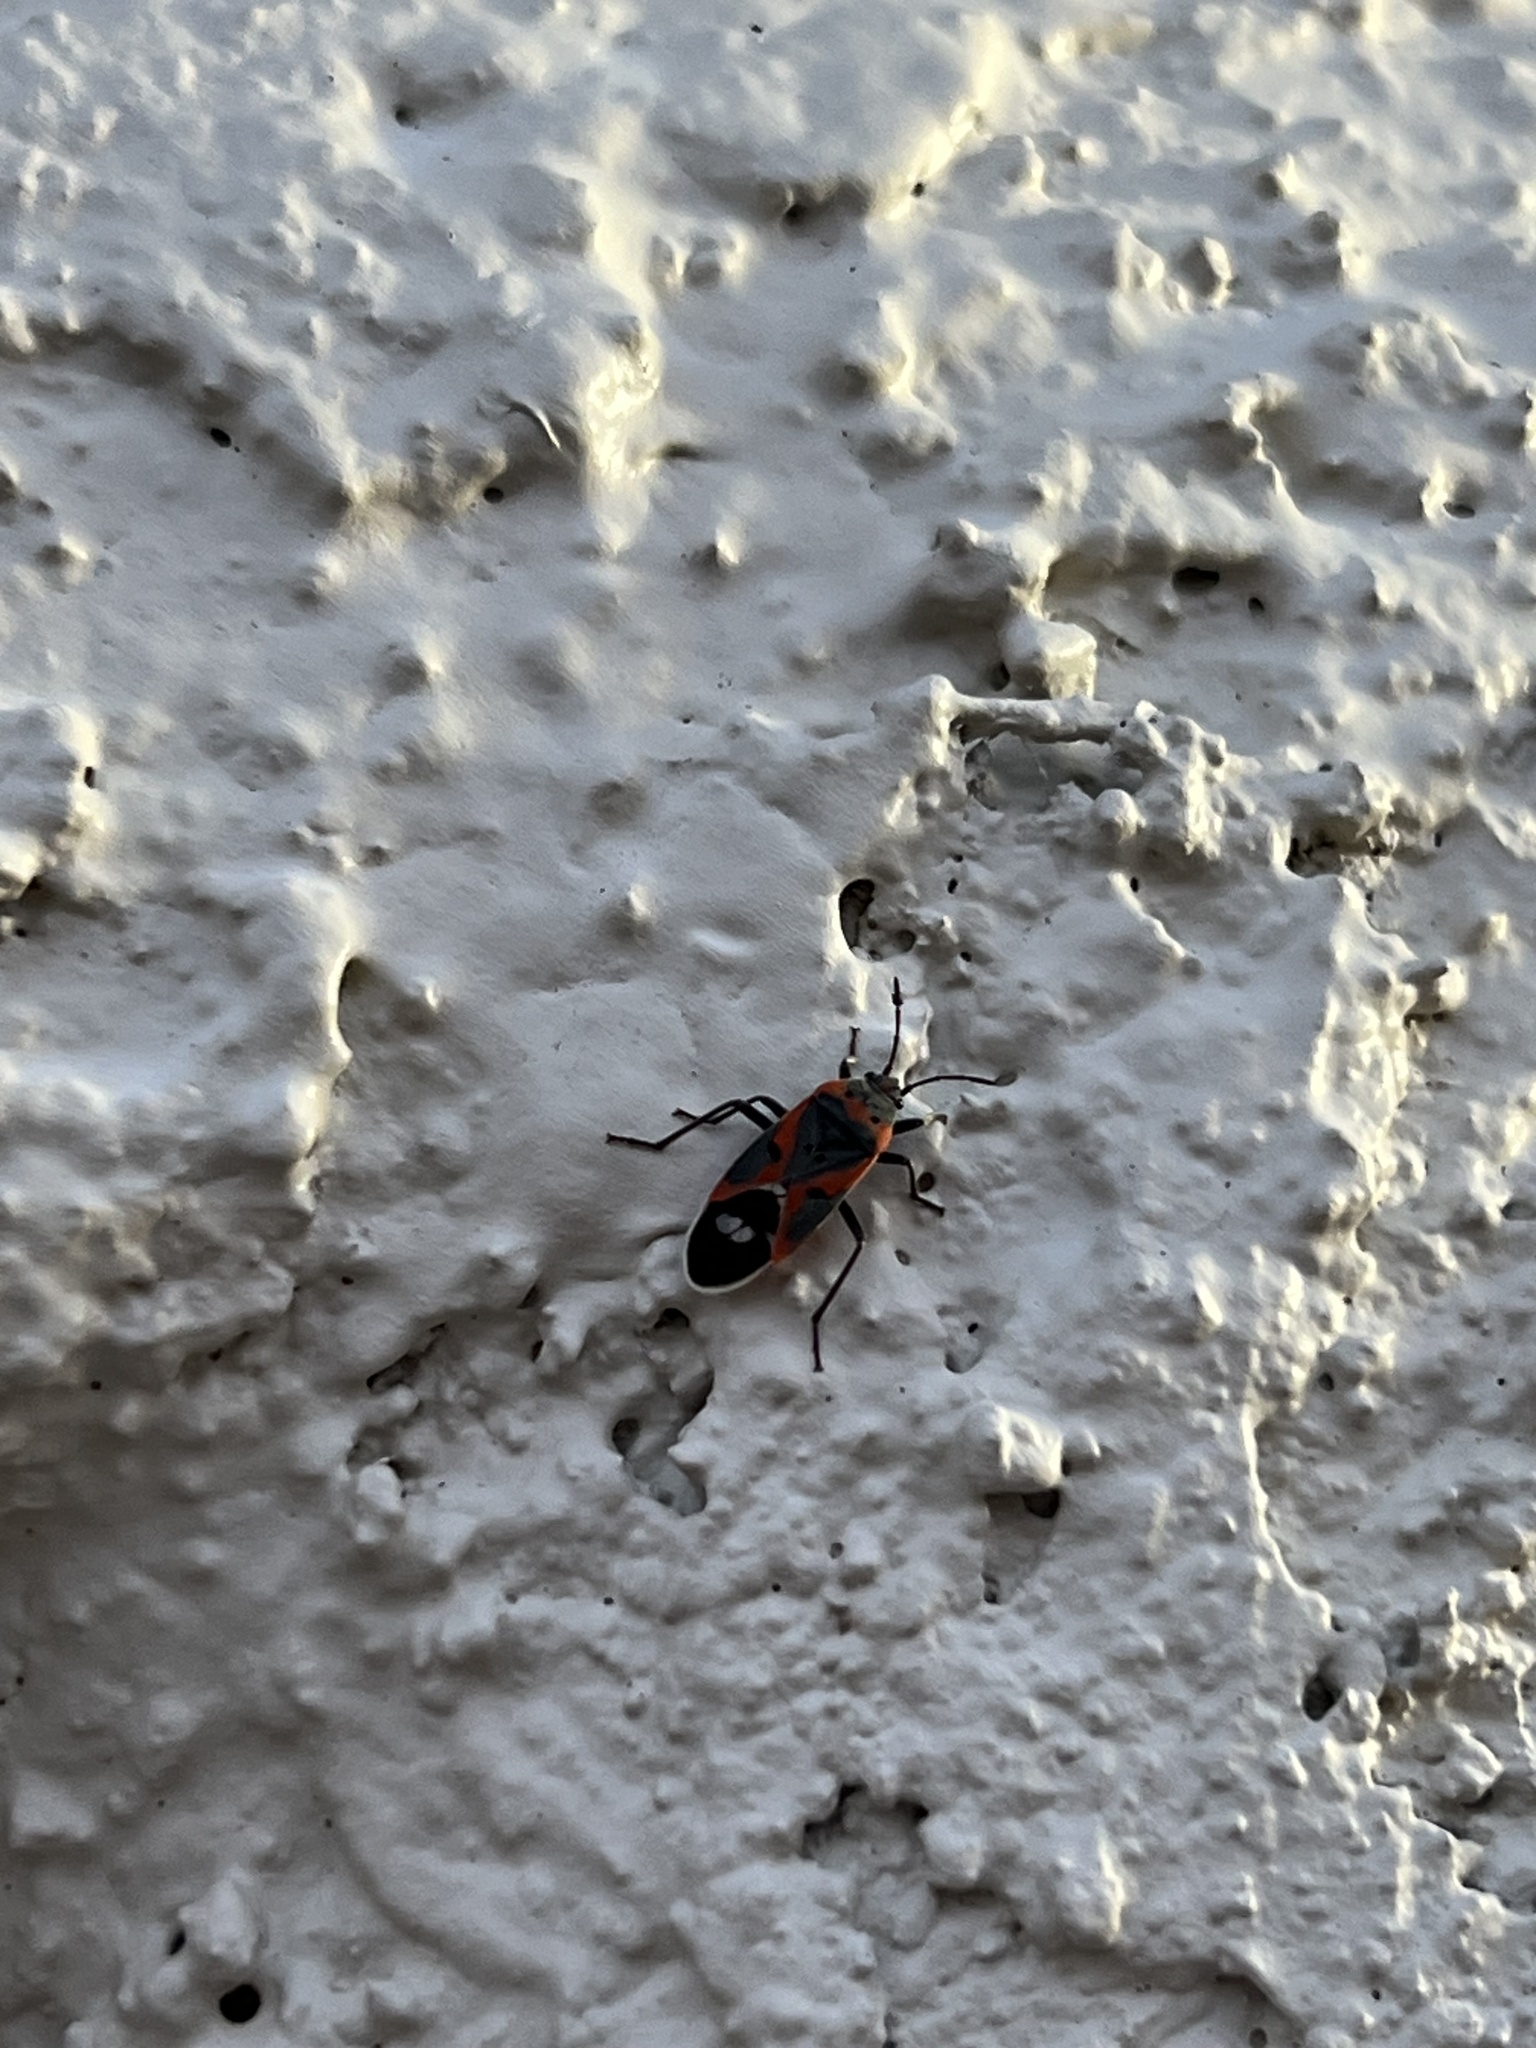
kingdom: Animalia
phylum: Arthropoda
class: Insecta
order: Hemiptera
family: Lygaeidae
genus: Lygaeus
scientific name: Lygaeus kalmii
